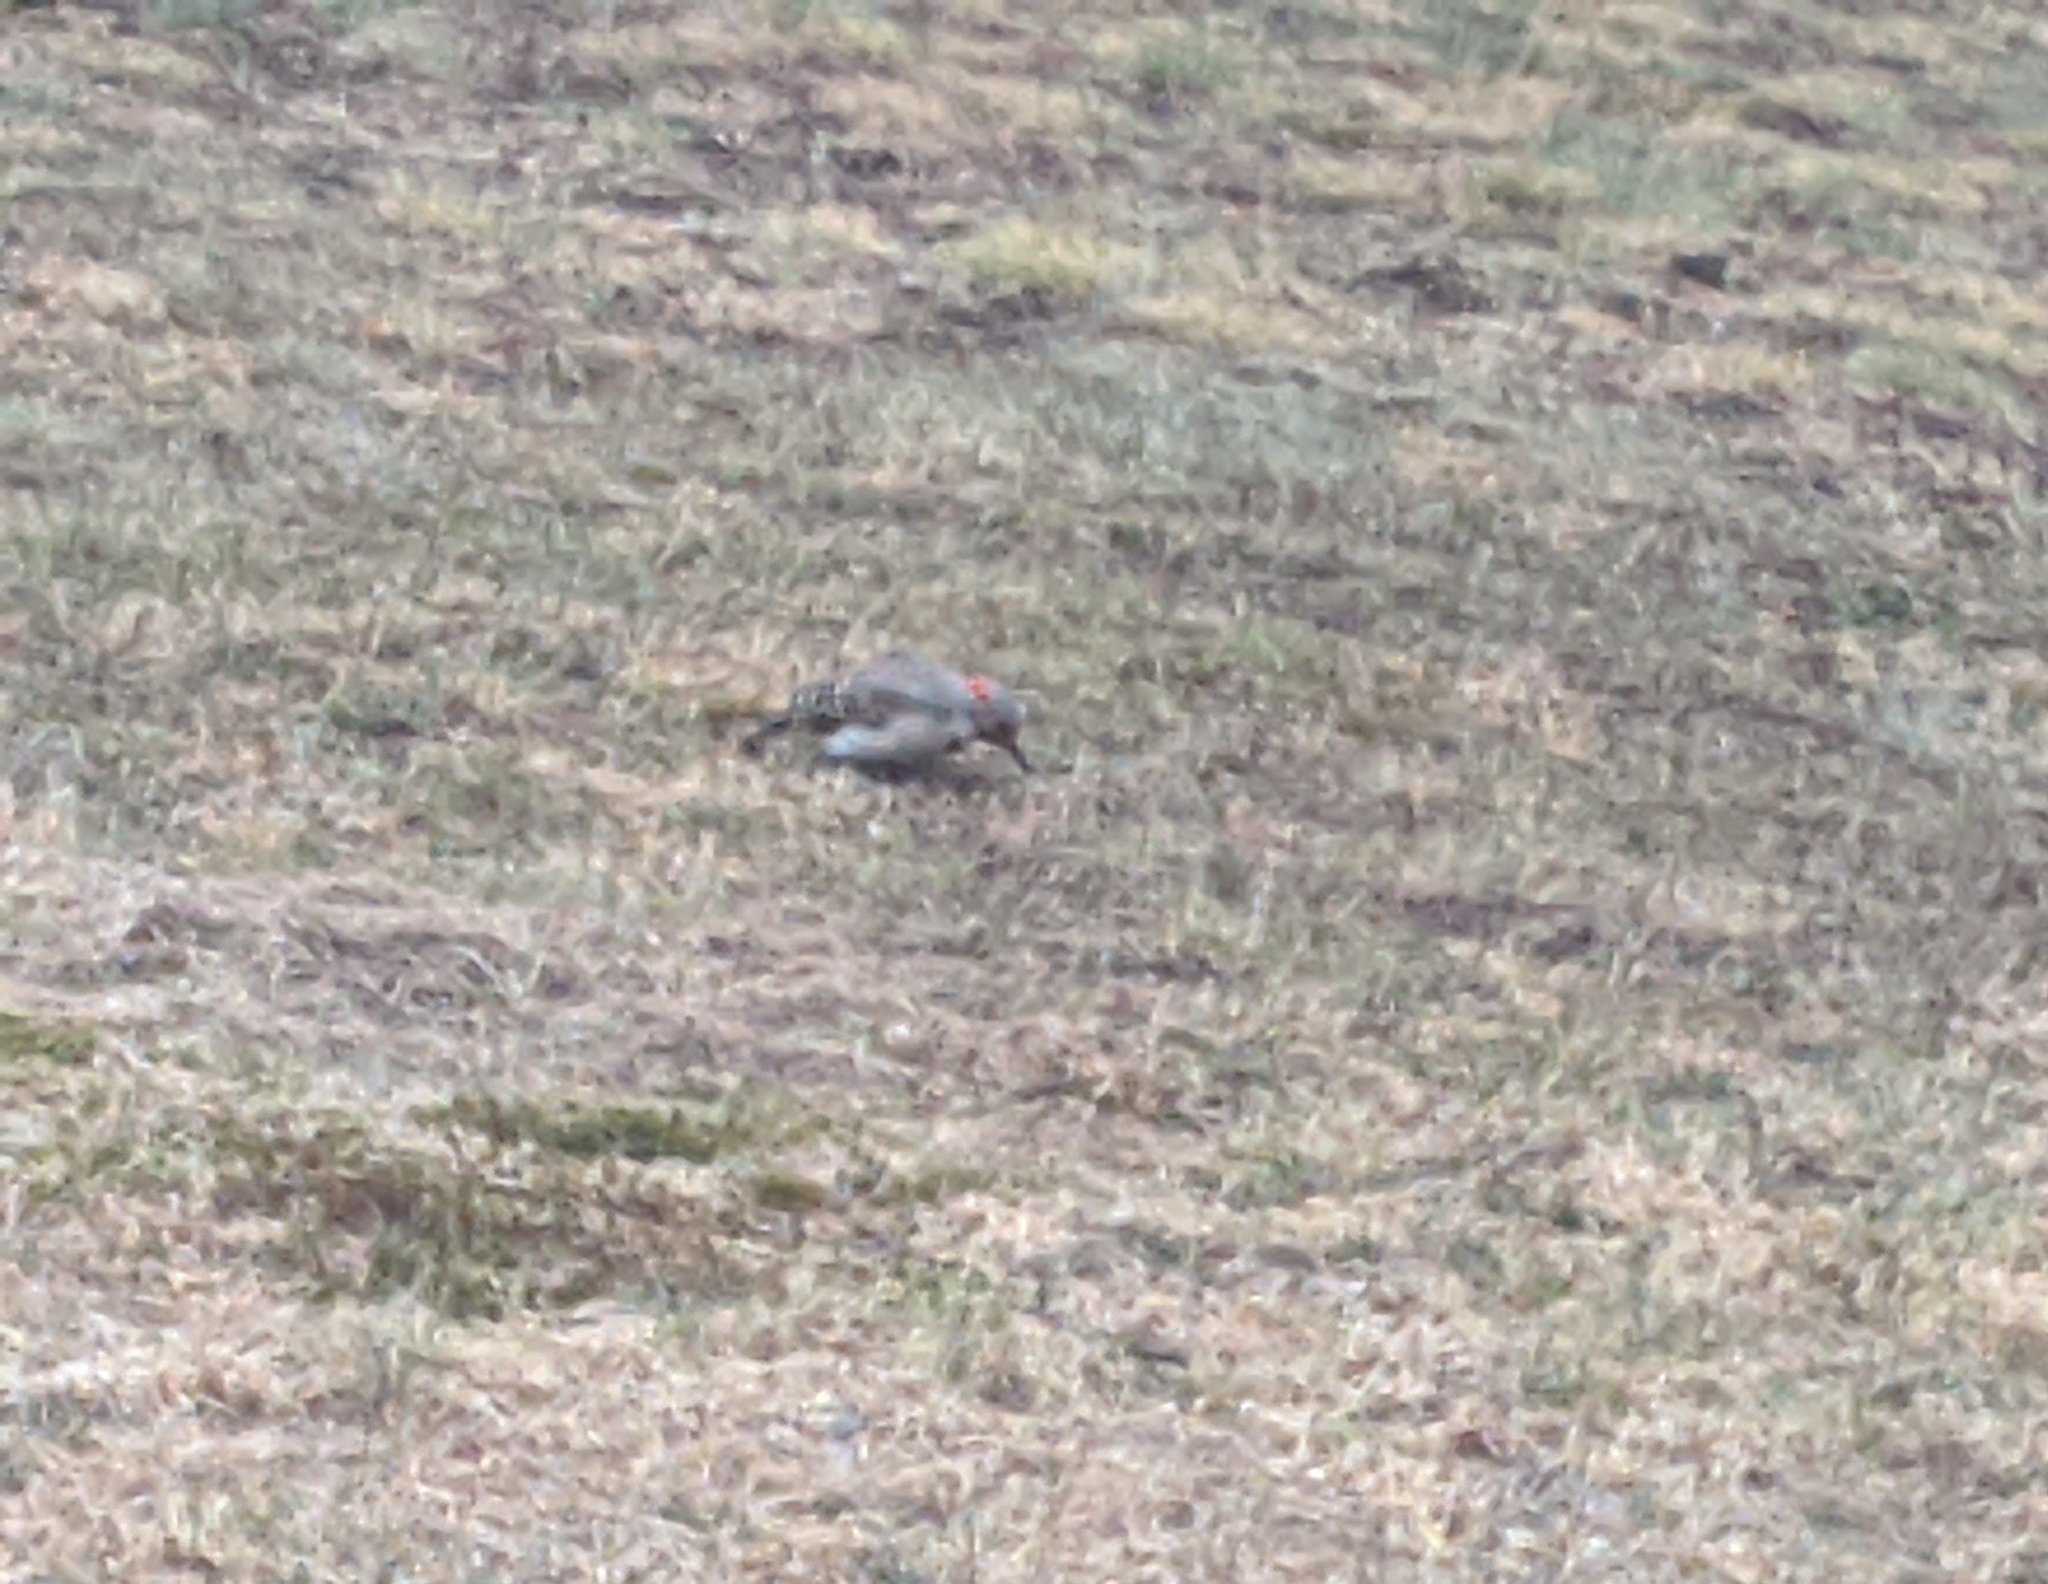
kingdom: Animalia
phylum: Chordata
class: Aves
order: Piciformes
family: Picidae
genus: Colaptes
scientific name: Colaptes auratus
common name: Northern flicker
